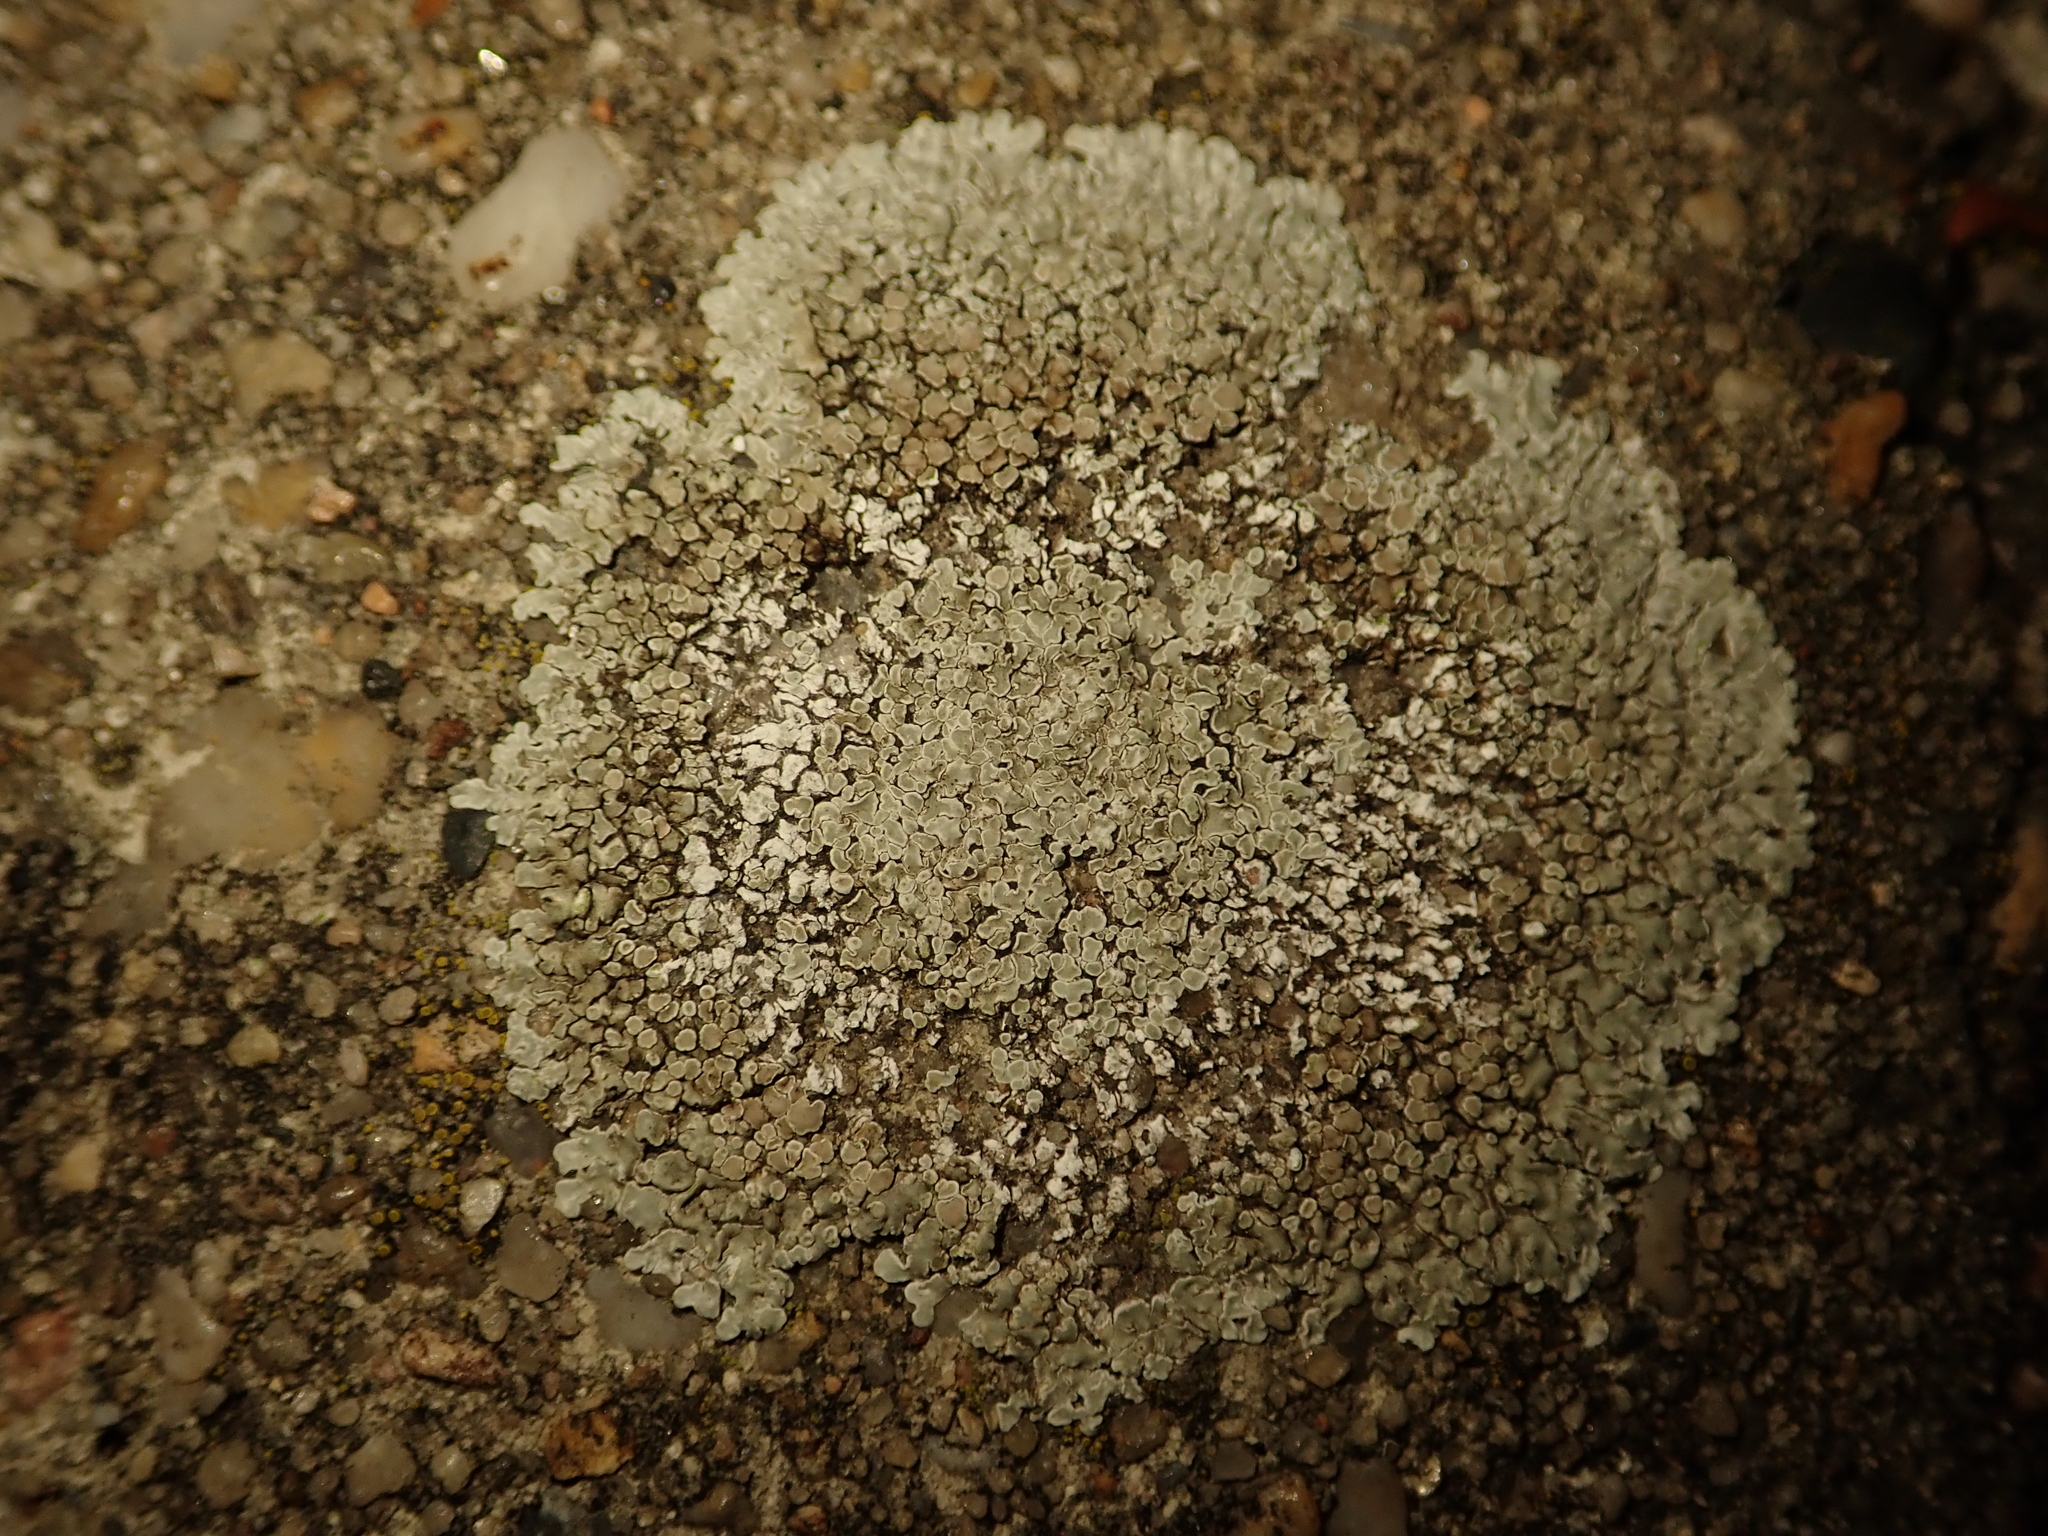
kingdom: Fungi
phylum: Ascomycota
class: Lecanoromycetes
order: Lecanorales
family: Lecanoraceae
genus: Protoparmeliopsis
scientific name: Protoparmeliopsis muralis
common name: Stonewall rim lichen
